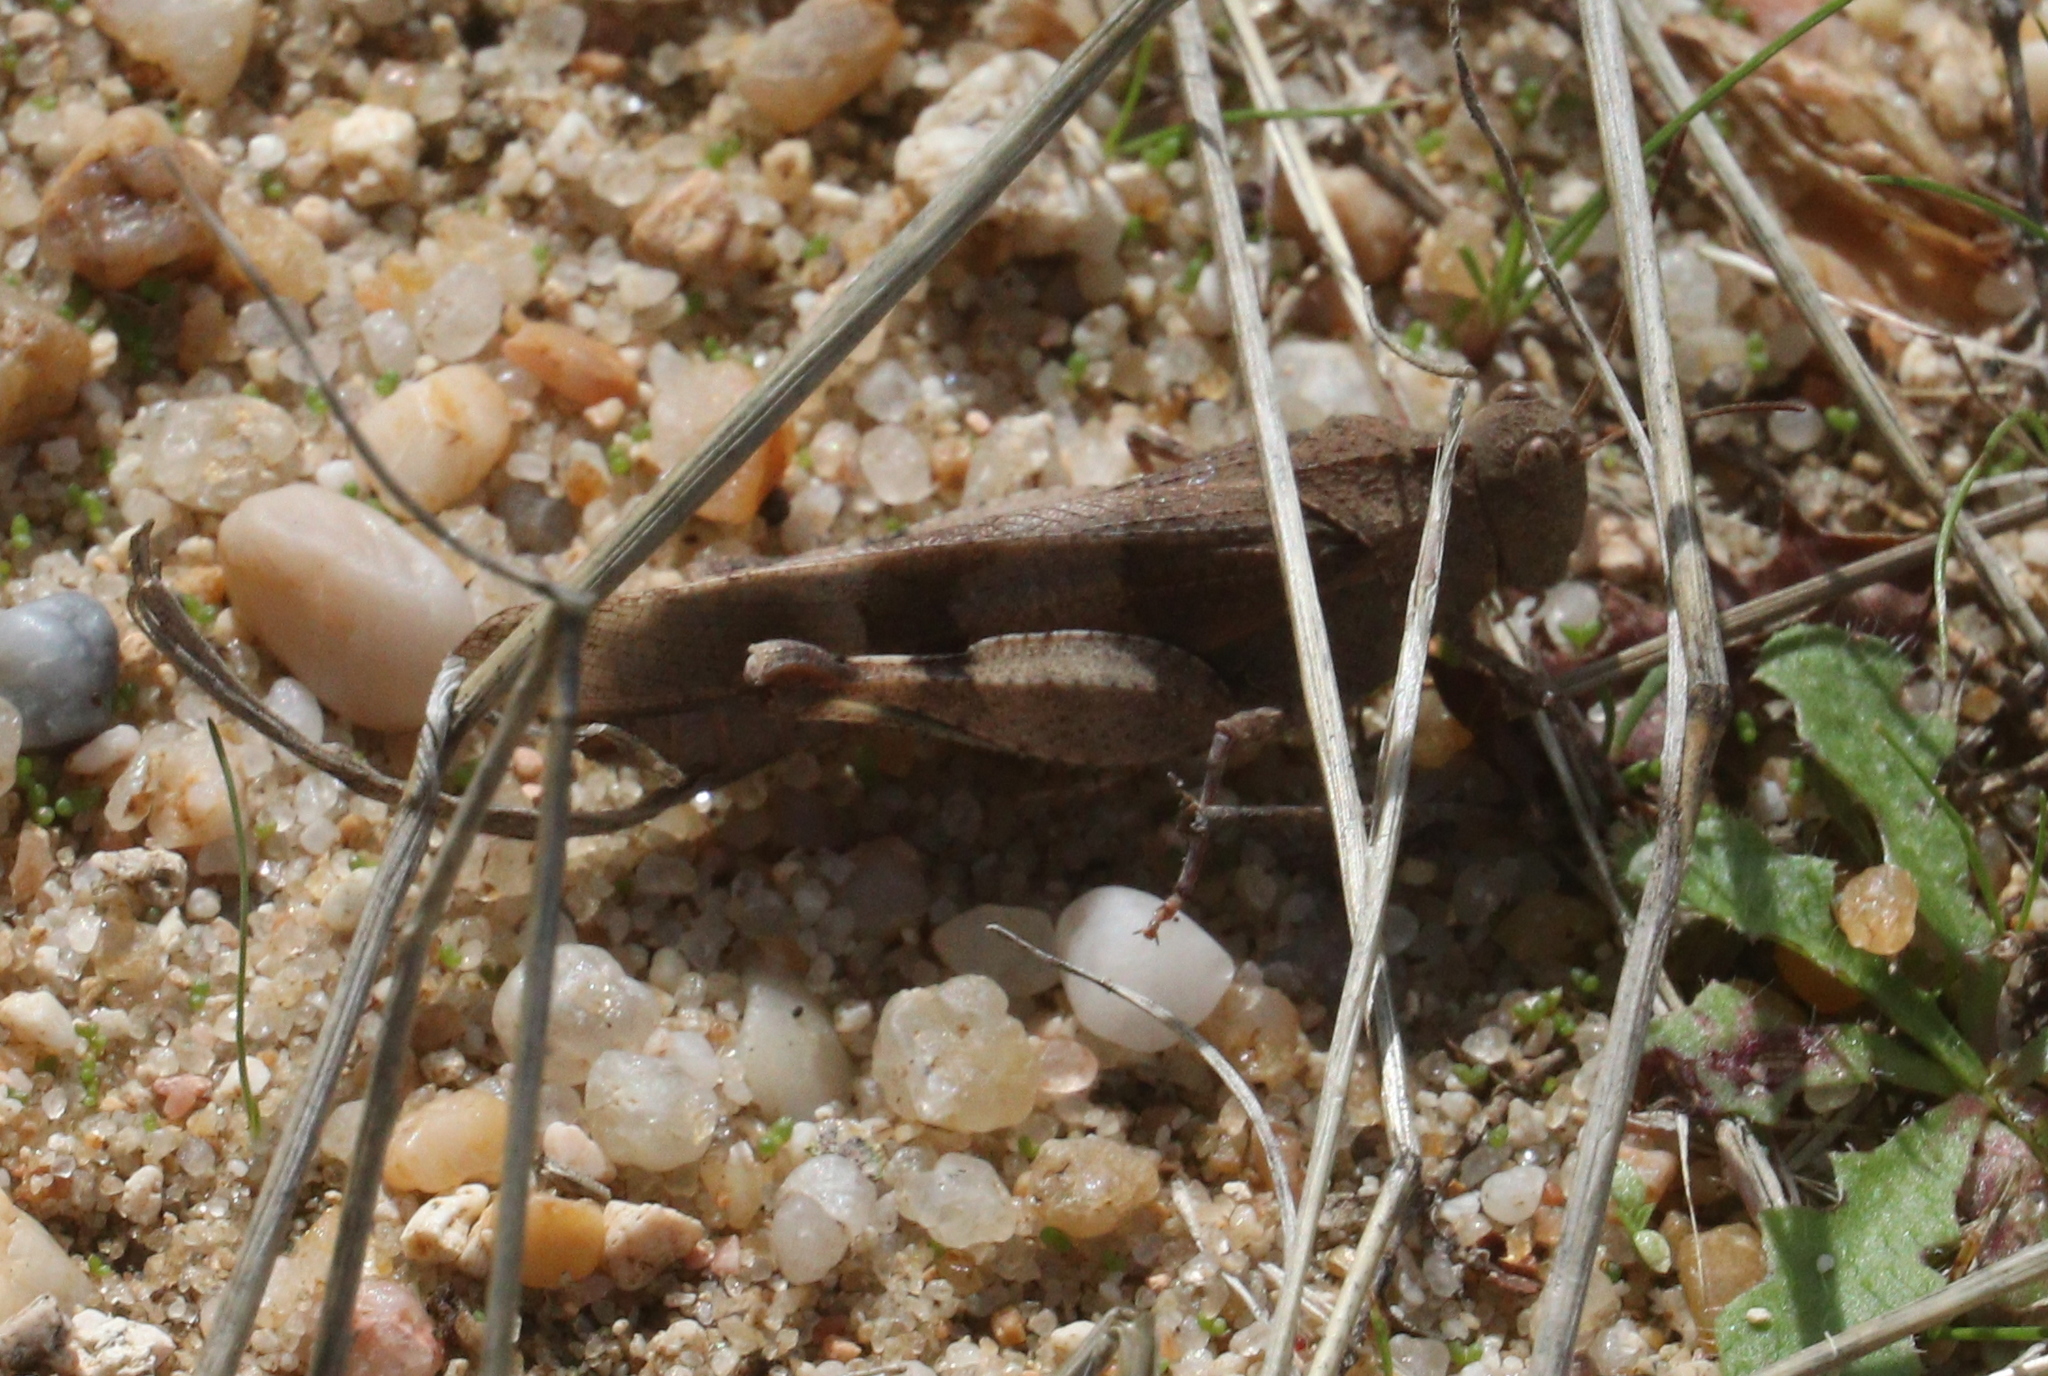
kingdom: Animalia
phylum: Arthropoda
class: Insecta
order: Orthoptera
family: Acrididae
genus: Oedipoda
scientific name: Oedipoda caerulescens
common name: Blue-winged grasshopper
